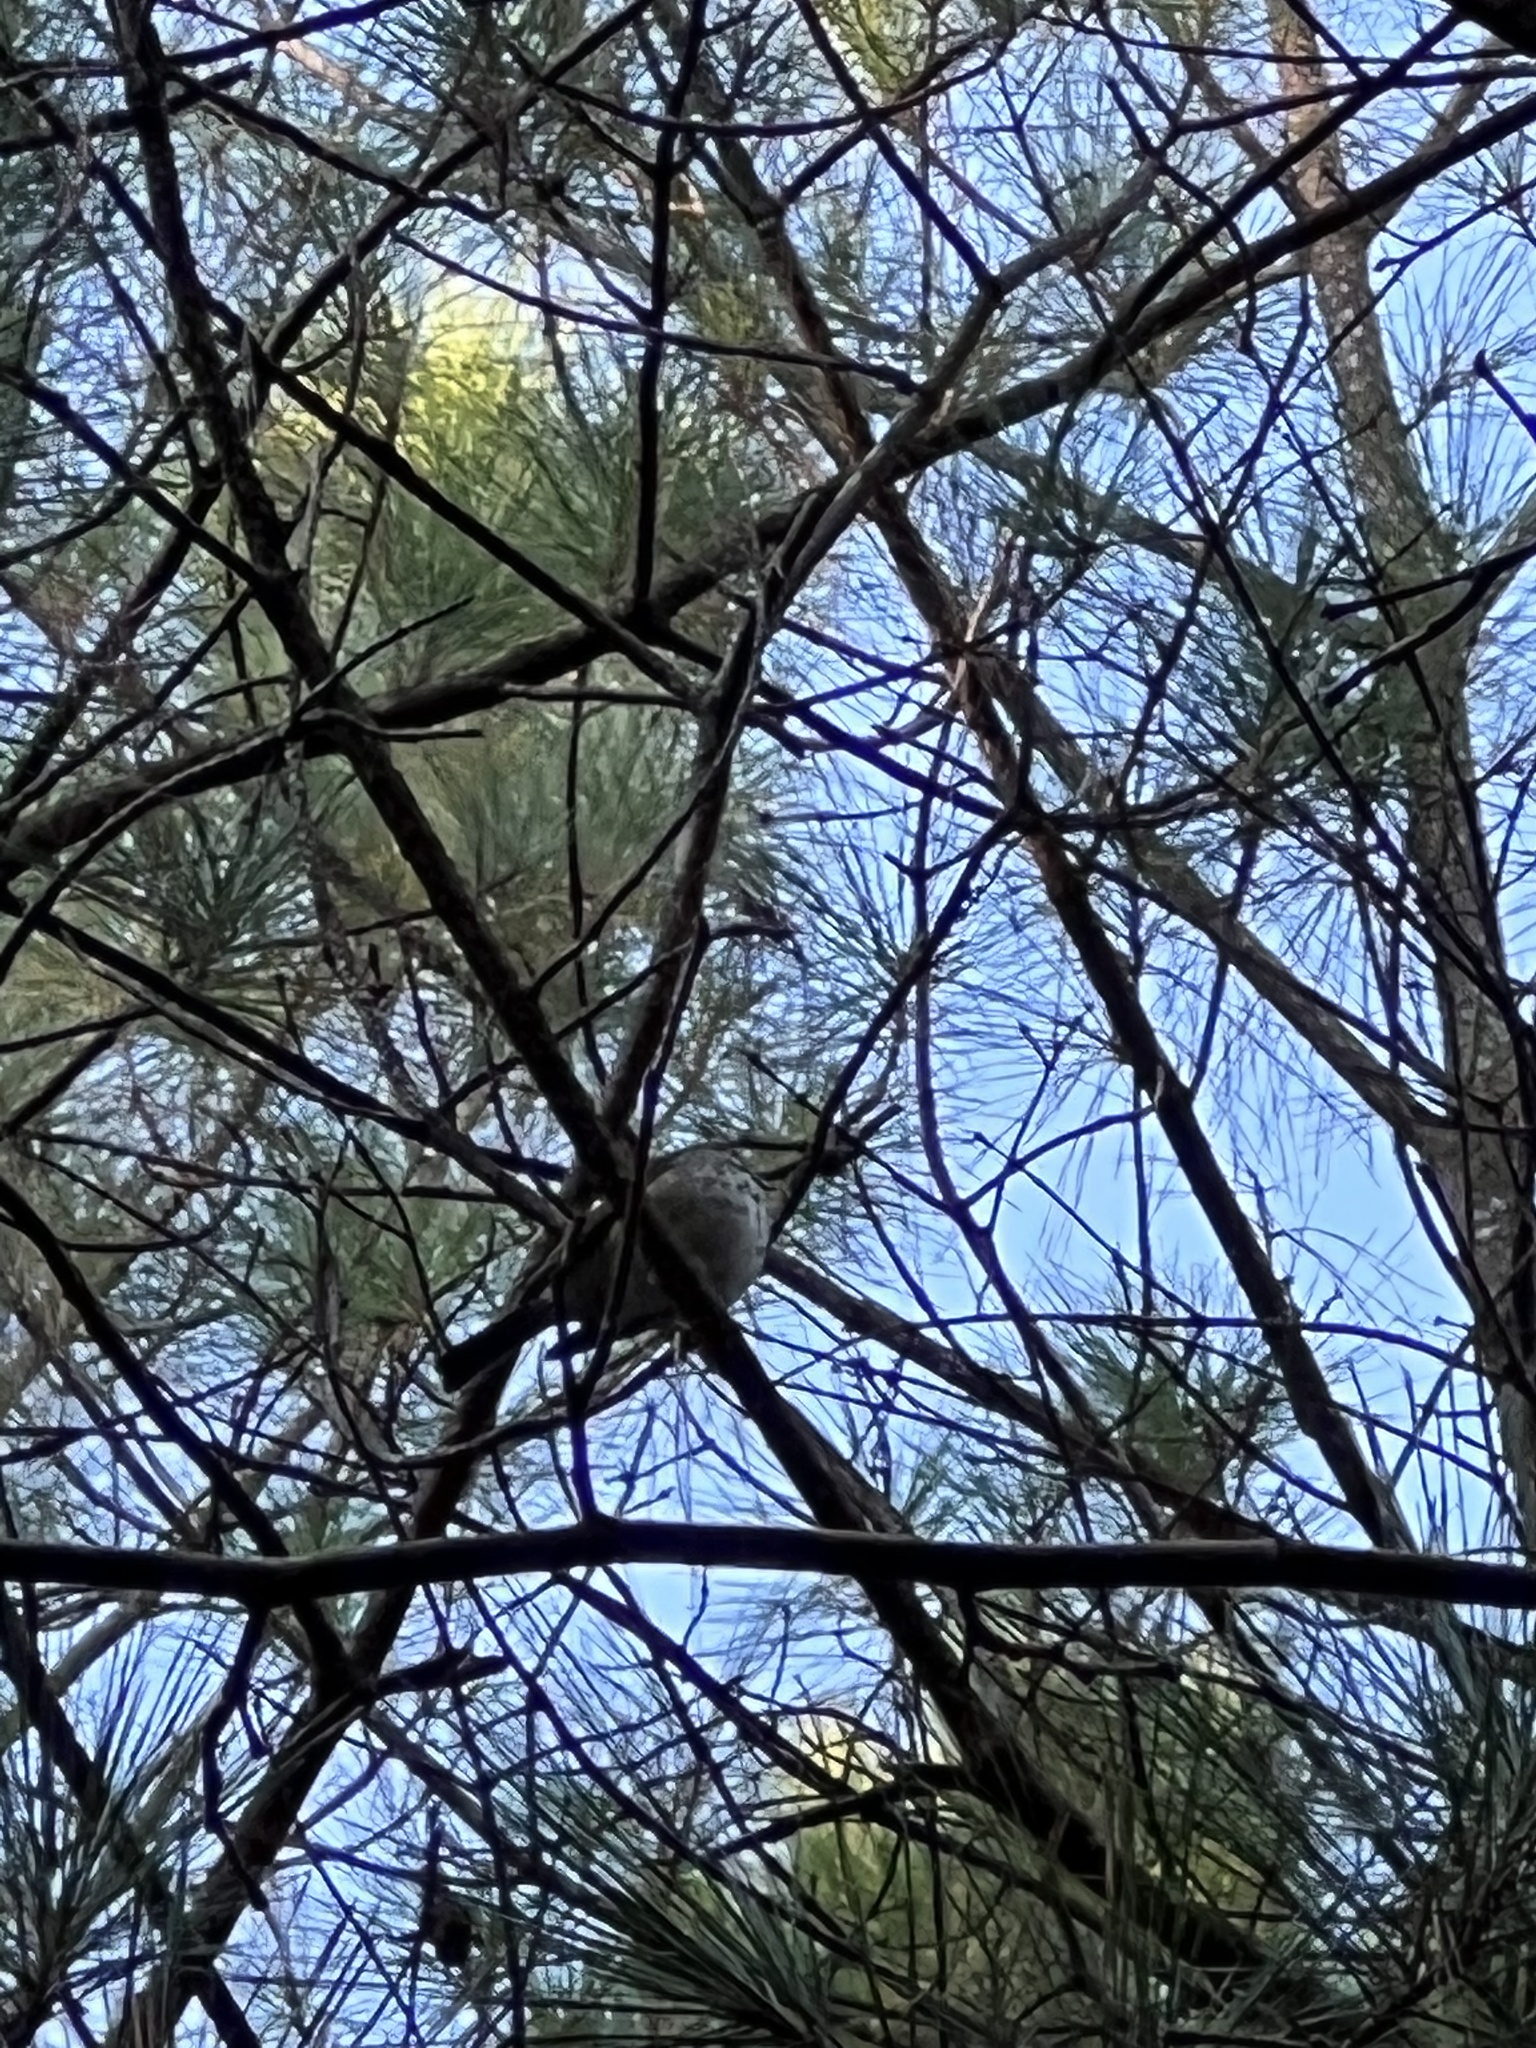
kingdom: Animalia
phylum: Chordata
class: Aves
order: Passeriformes
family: Turdidae
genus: Catharus
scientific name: Catharus guttatus
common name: Hermit thrush
